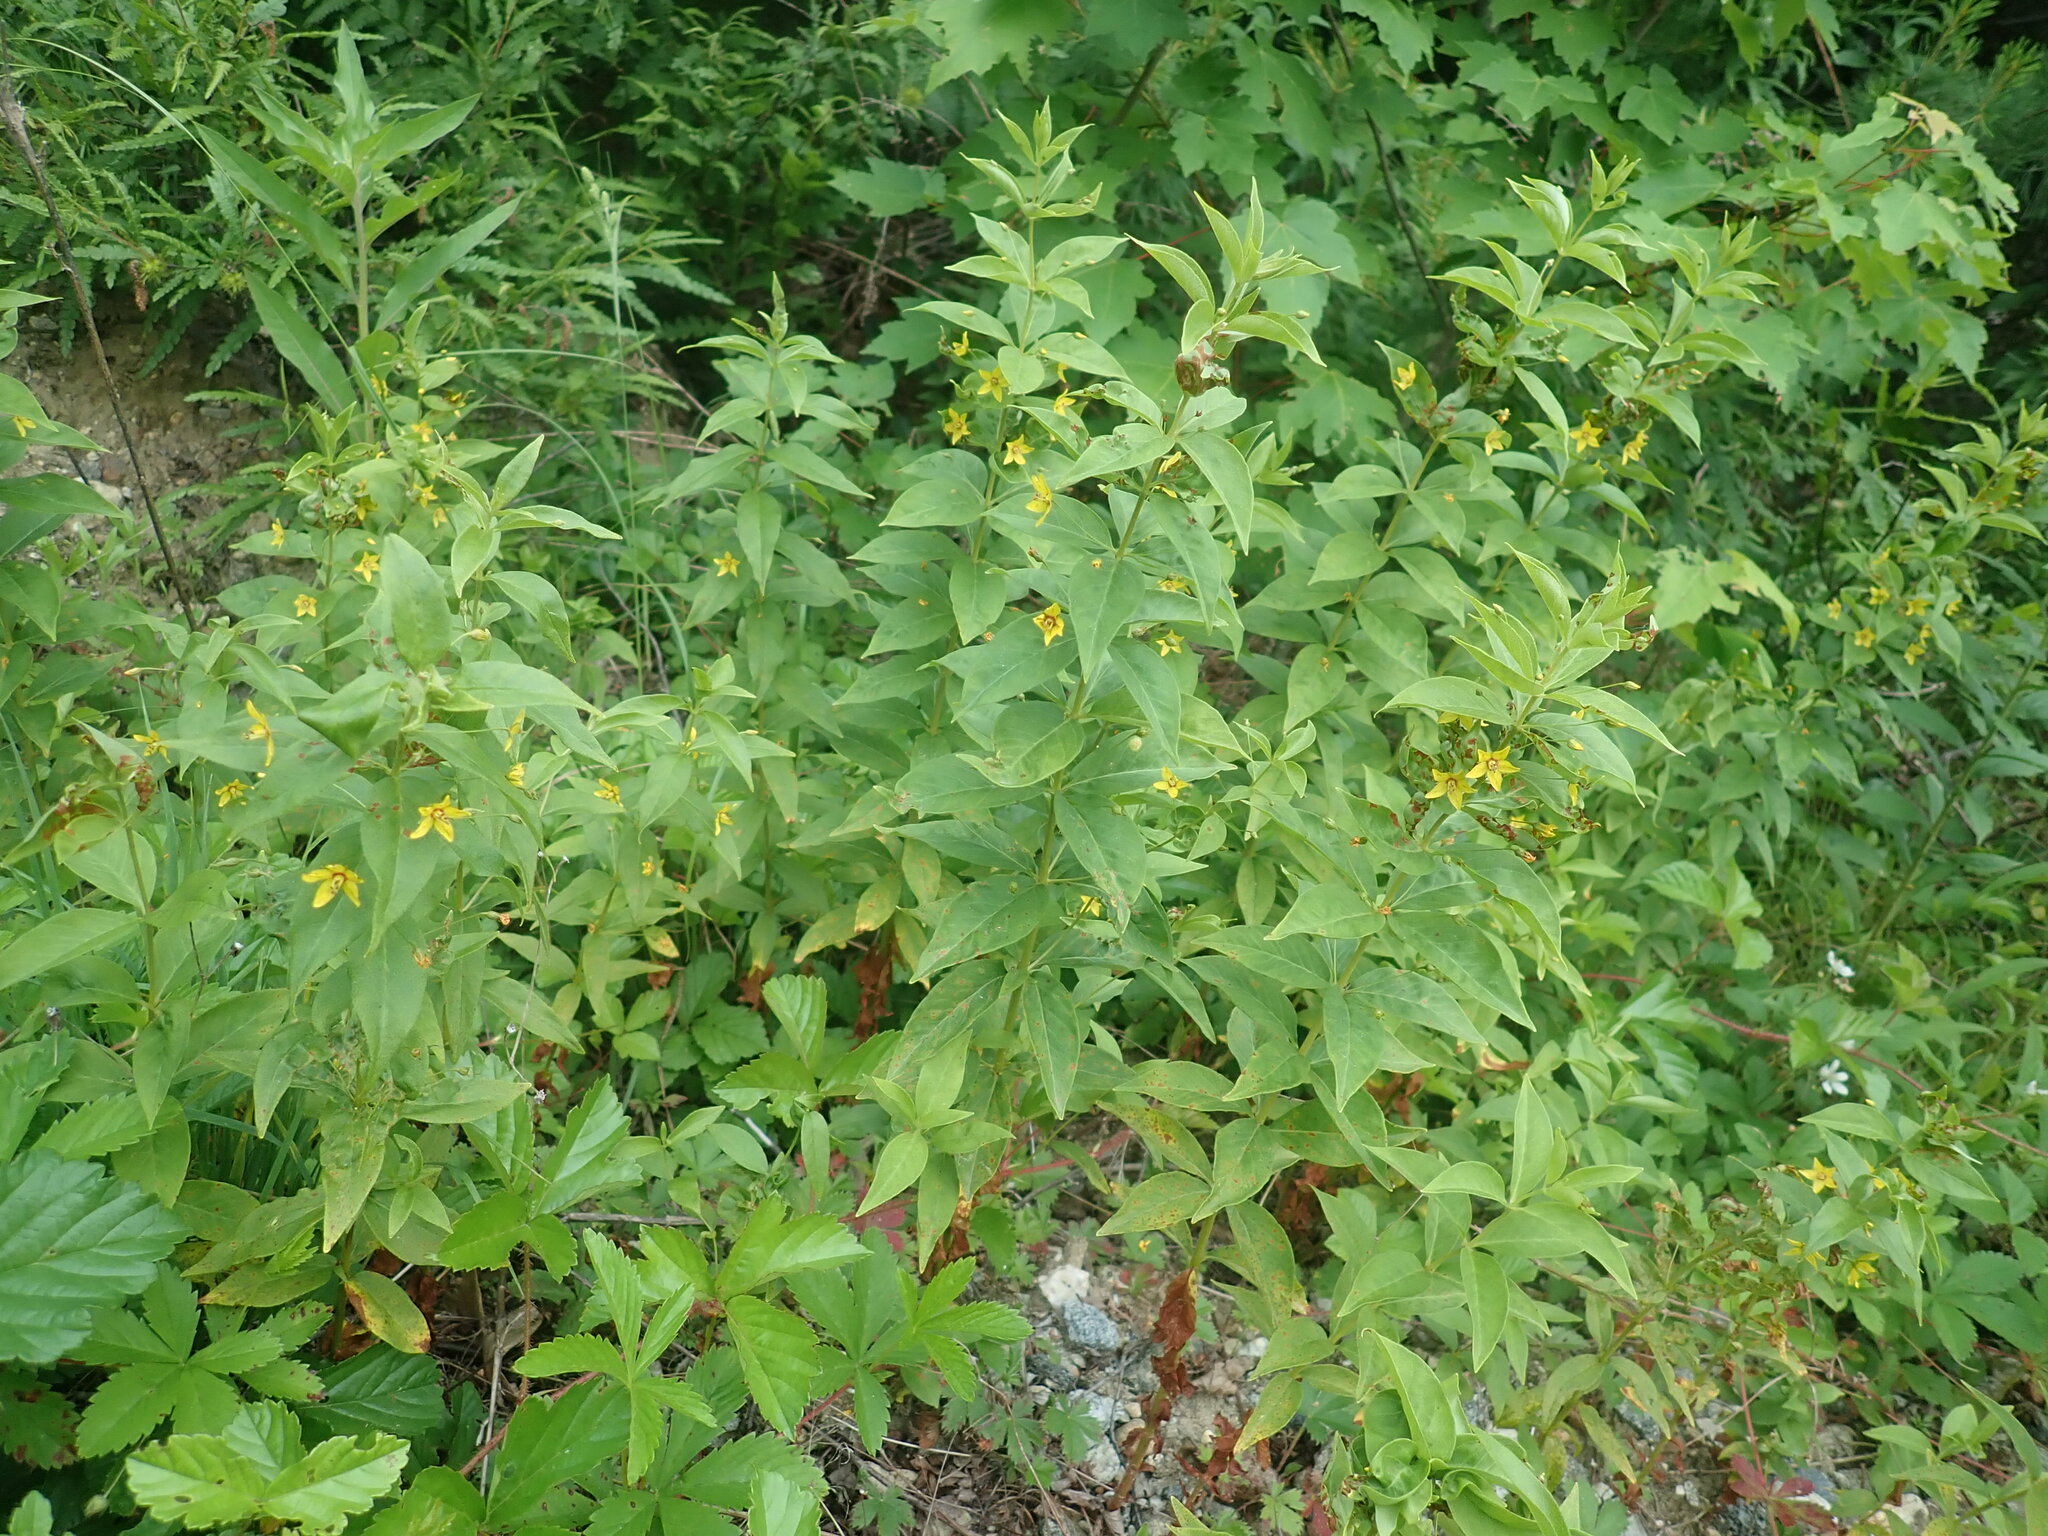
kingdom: Plantae
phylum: Tracheophyta
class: Magnoliopsida
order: Ericales
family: Primulaceae
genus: Lysimachia
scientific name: Lysimachia quadrifolia
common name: Whorled loosestrife
